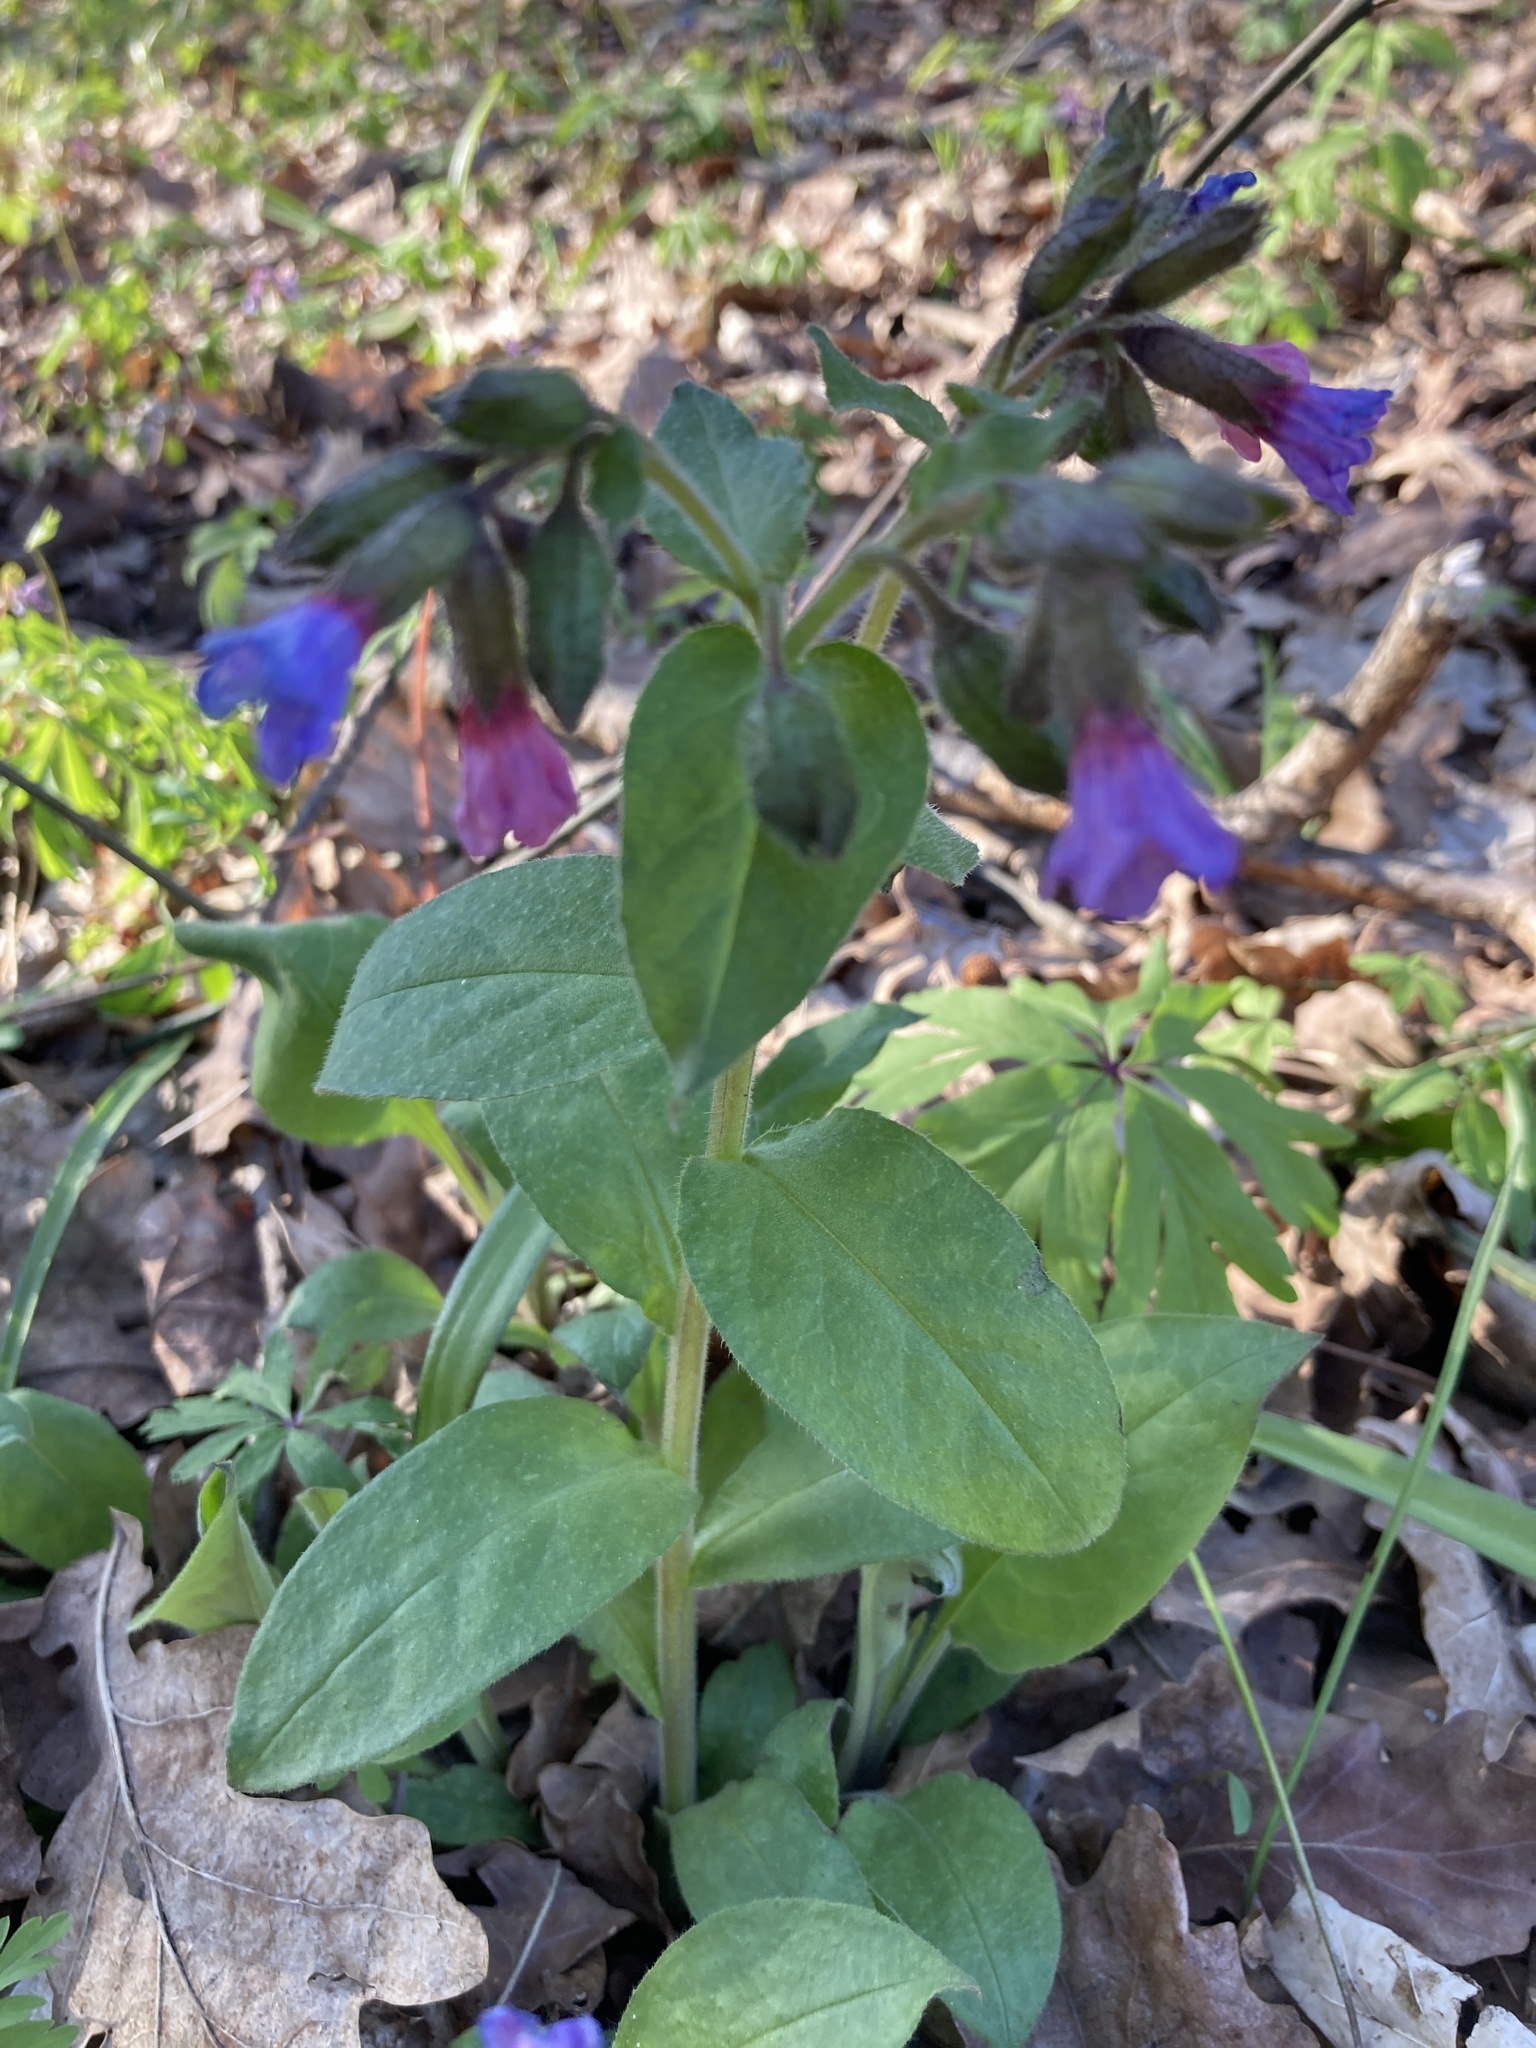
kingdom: Plantae
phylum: Tracheophyta
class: Magnoliopsida
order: Boraginales
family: Boraginaceae
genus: Pulmonaria
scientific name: Pulmonaria obscura
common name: Suffolk lungwort
